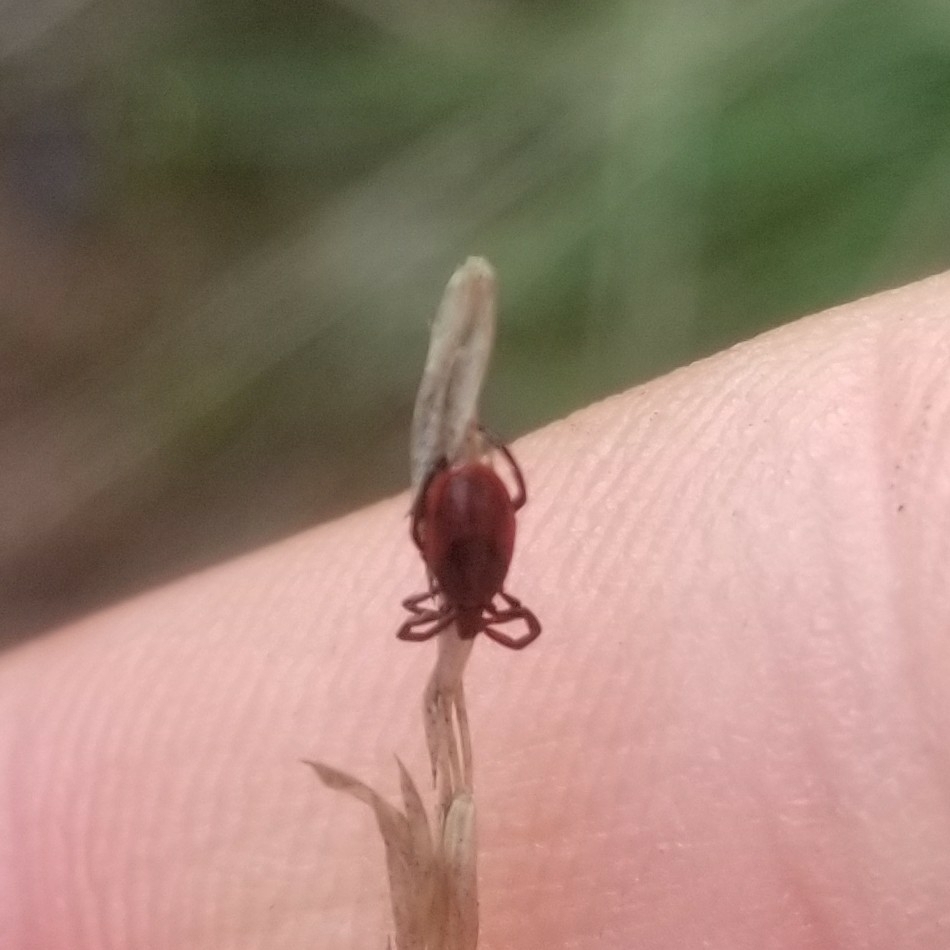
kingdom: Animalia
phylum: Arthropoda
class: Arachnida
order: Ixodida
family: Ixodidae
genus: Ixodes
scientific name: Ixodes pacificus
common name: California black-legged tick
